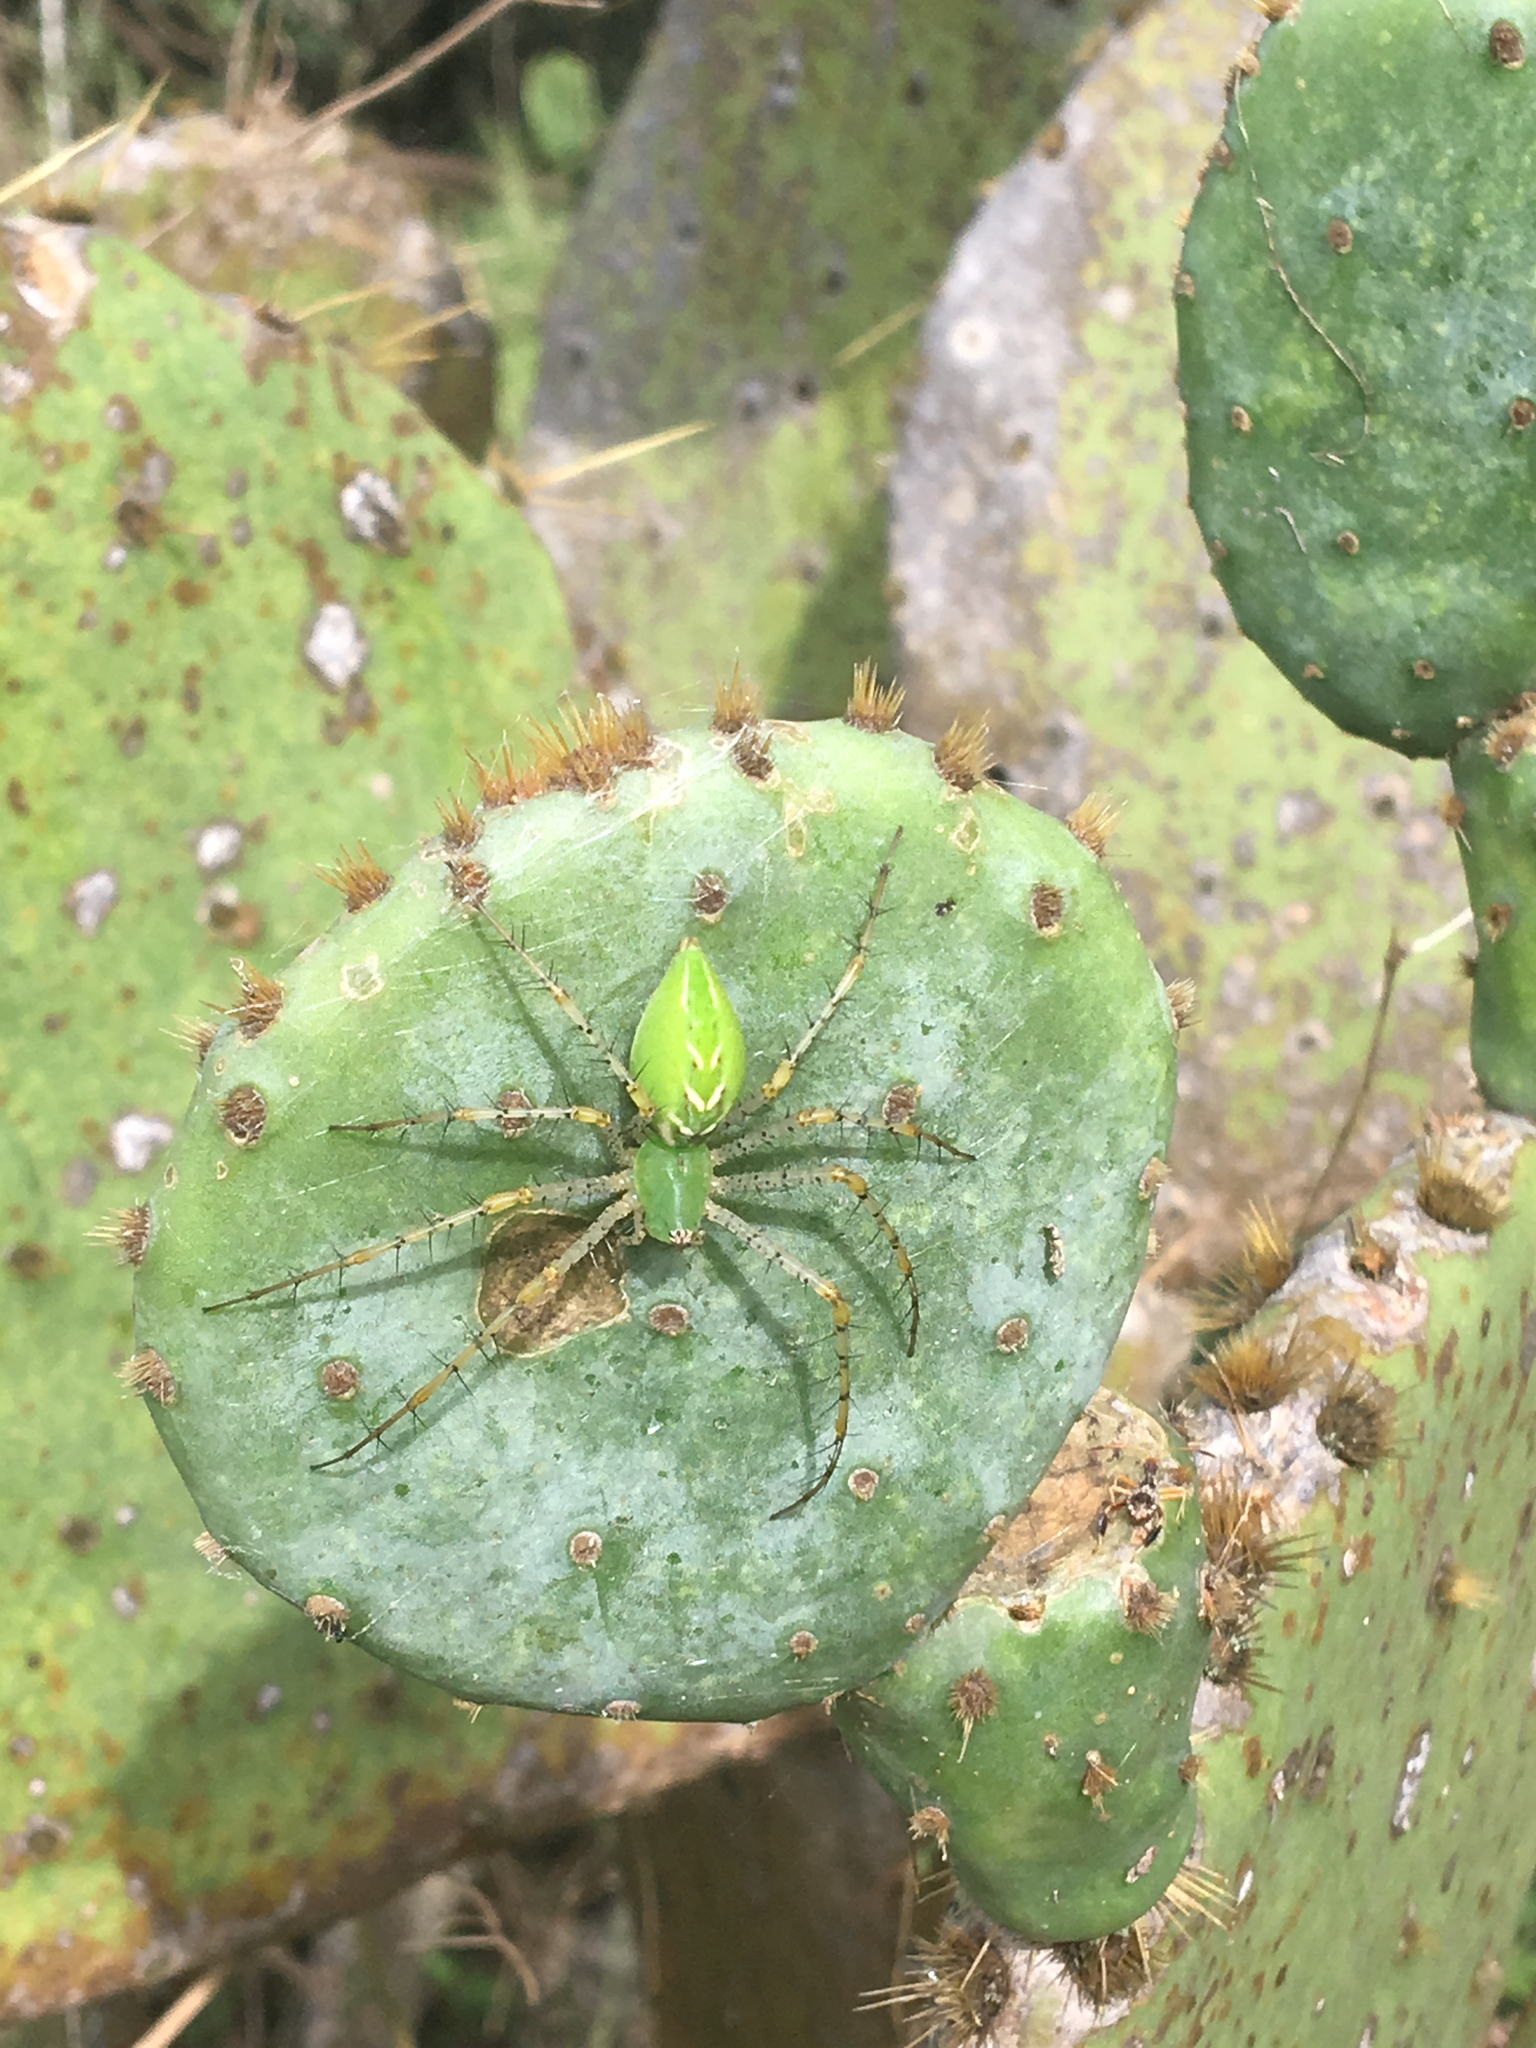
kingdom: Animalia
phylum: Arthropoda
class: Arachnida
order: Araneae
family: Oxyopidae
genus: Peucetia
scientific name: Peucetia viridans
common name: Lynx spiders
